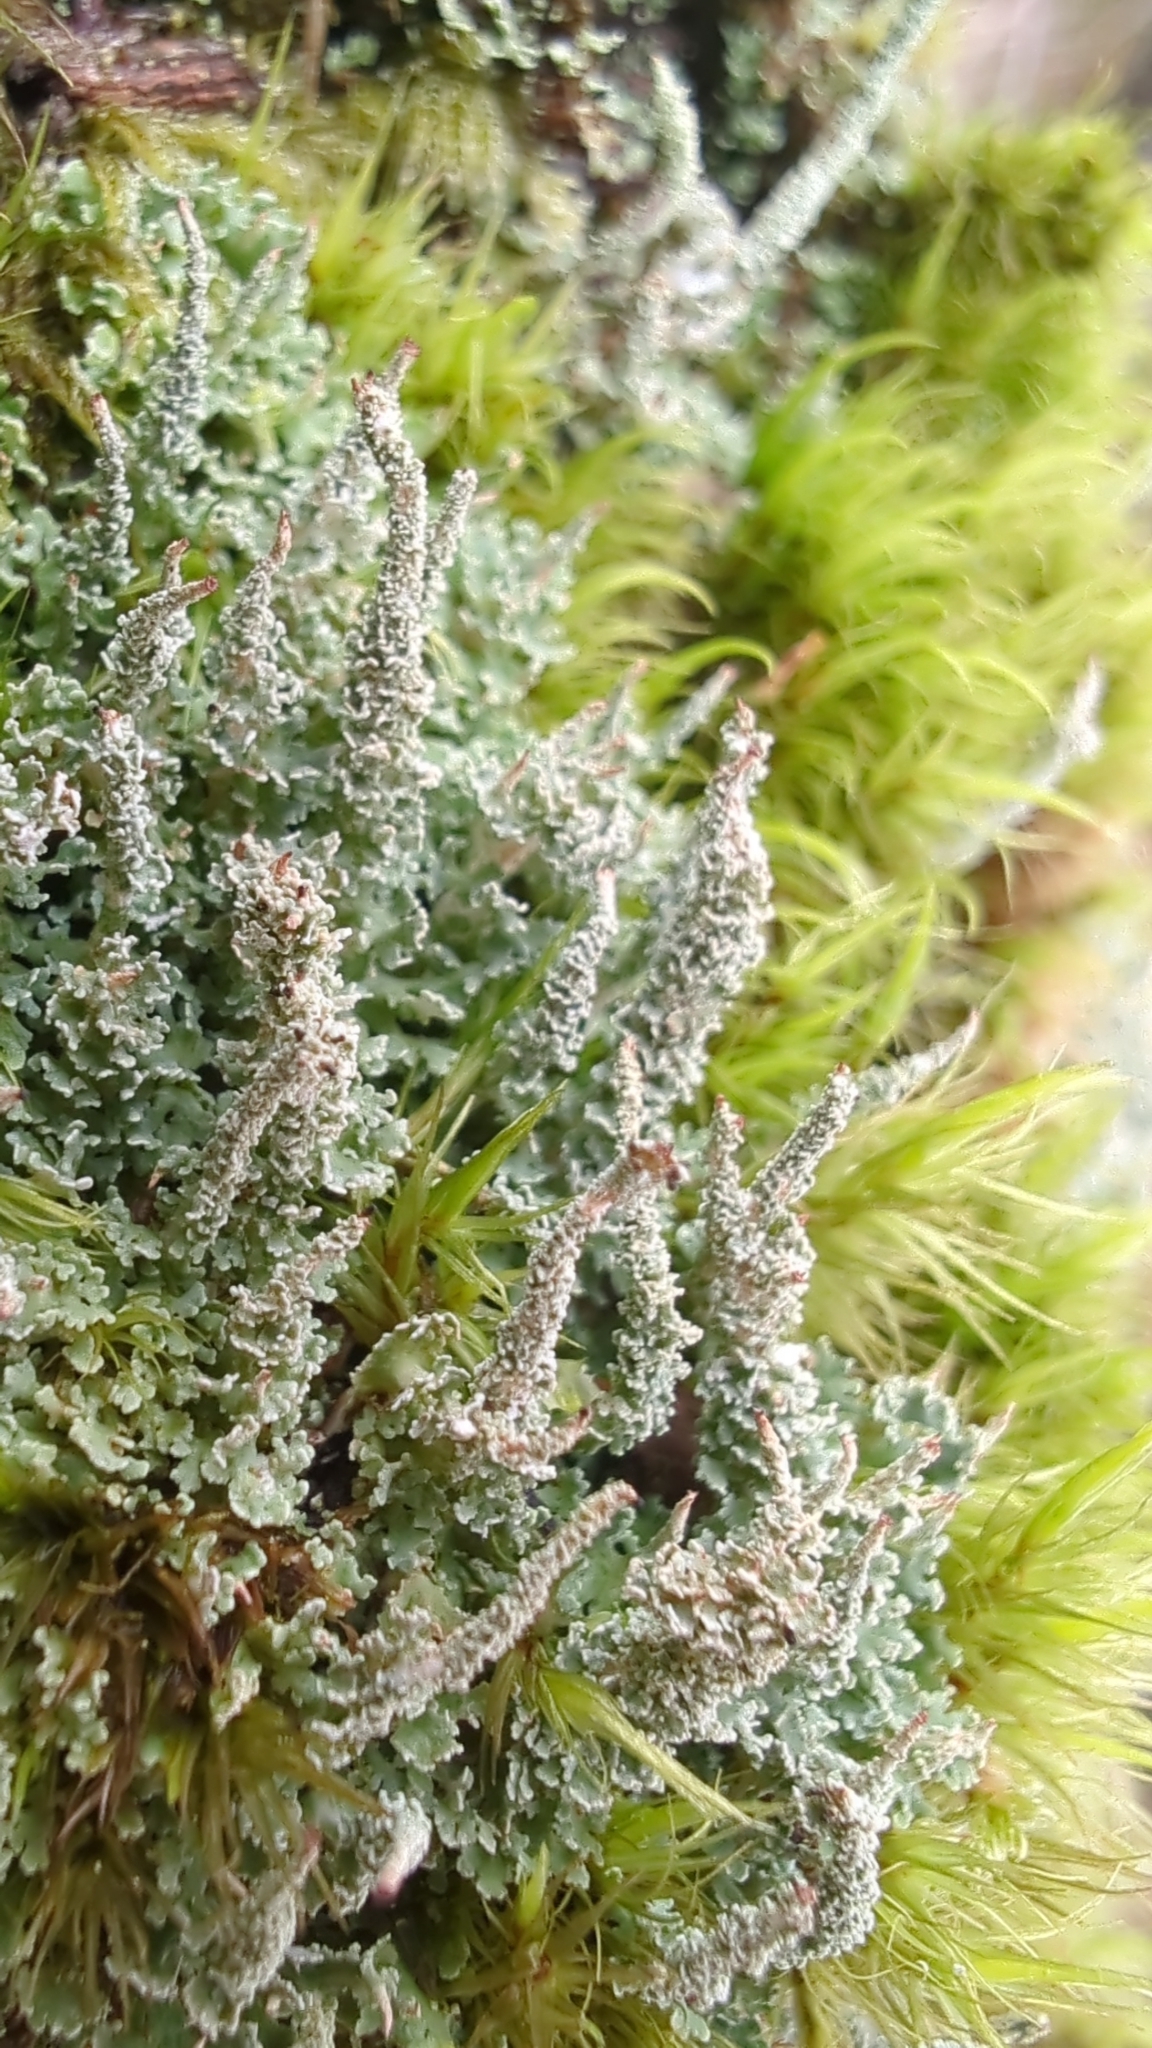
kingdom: Fungi
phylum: Ascomycota
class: Lecanoromycetes
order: Lecanorales
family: Cladoniaceae
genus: Cladonia
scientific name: Cladonia squamosa
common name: Dragon horn
